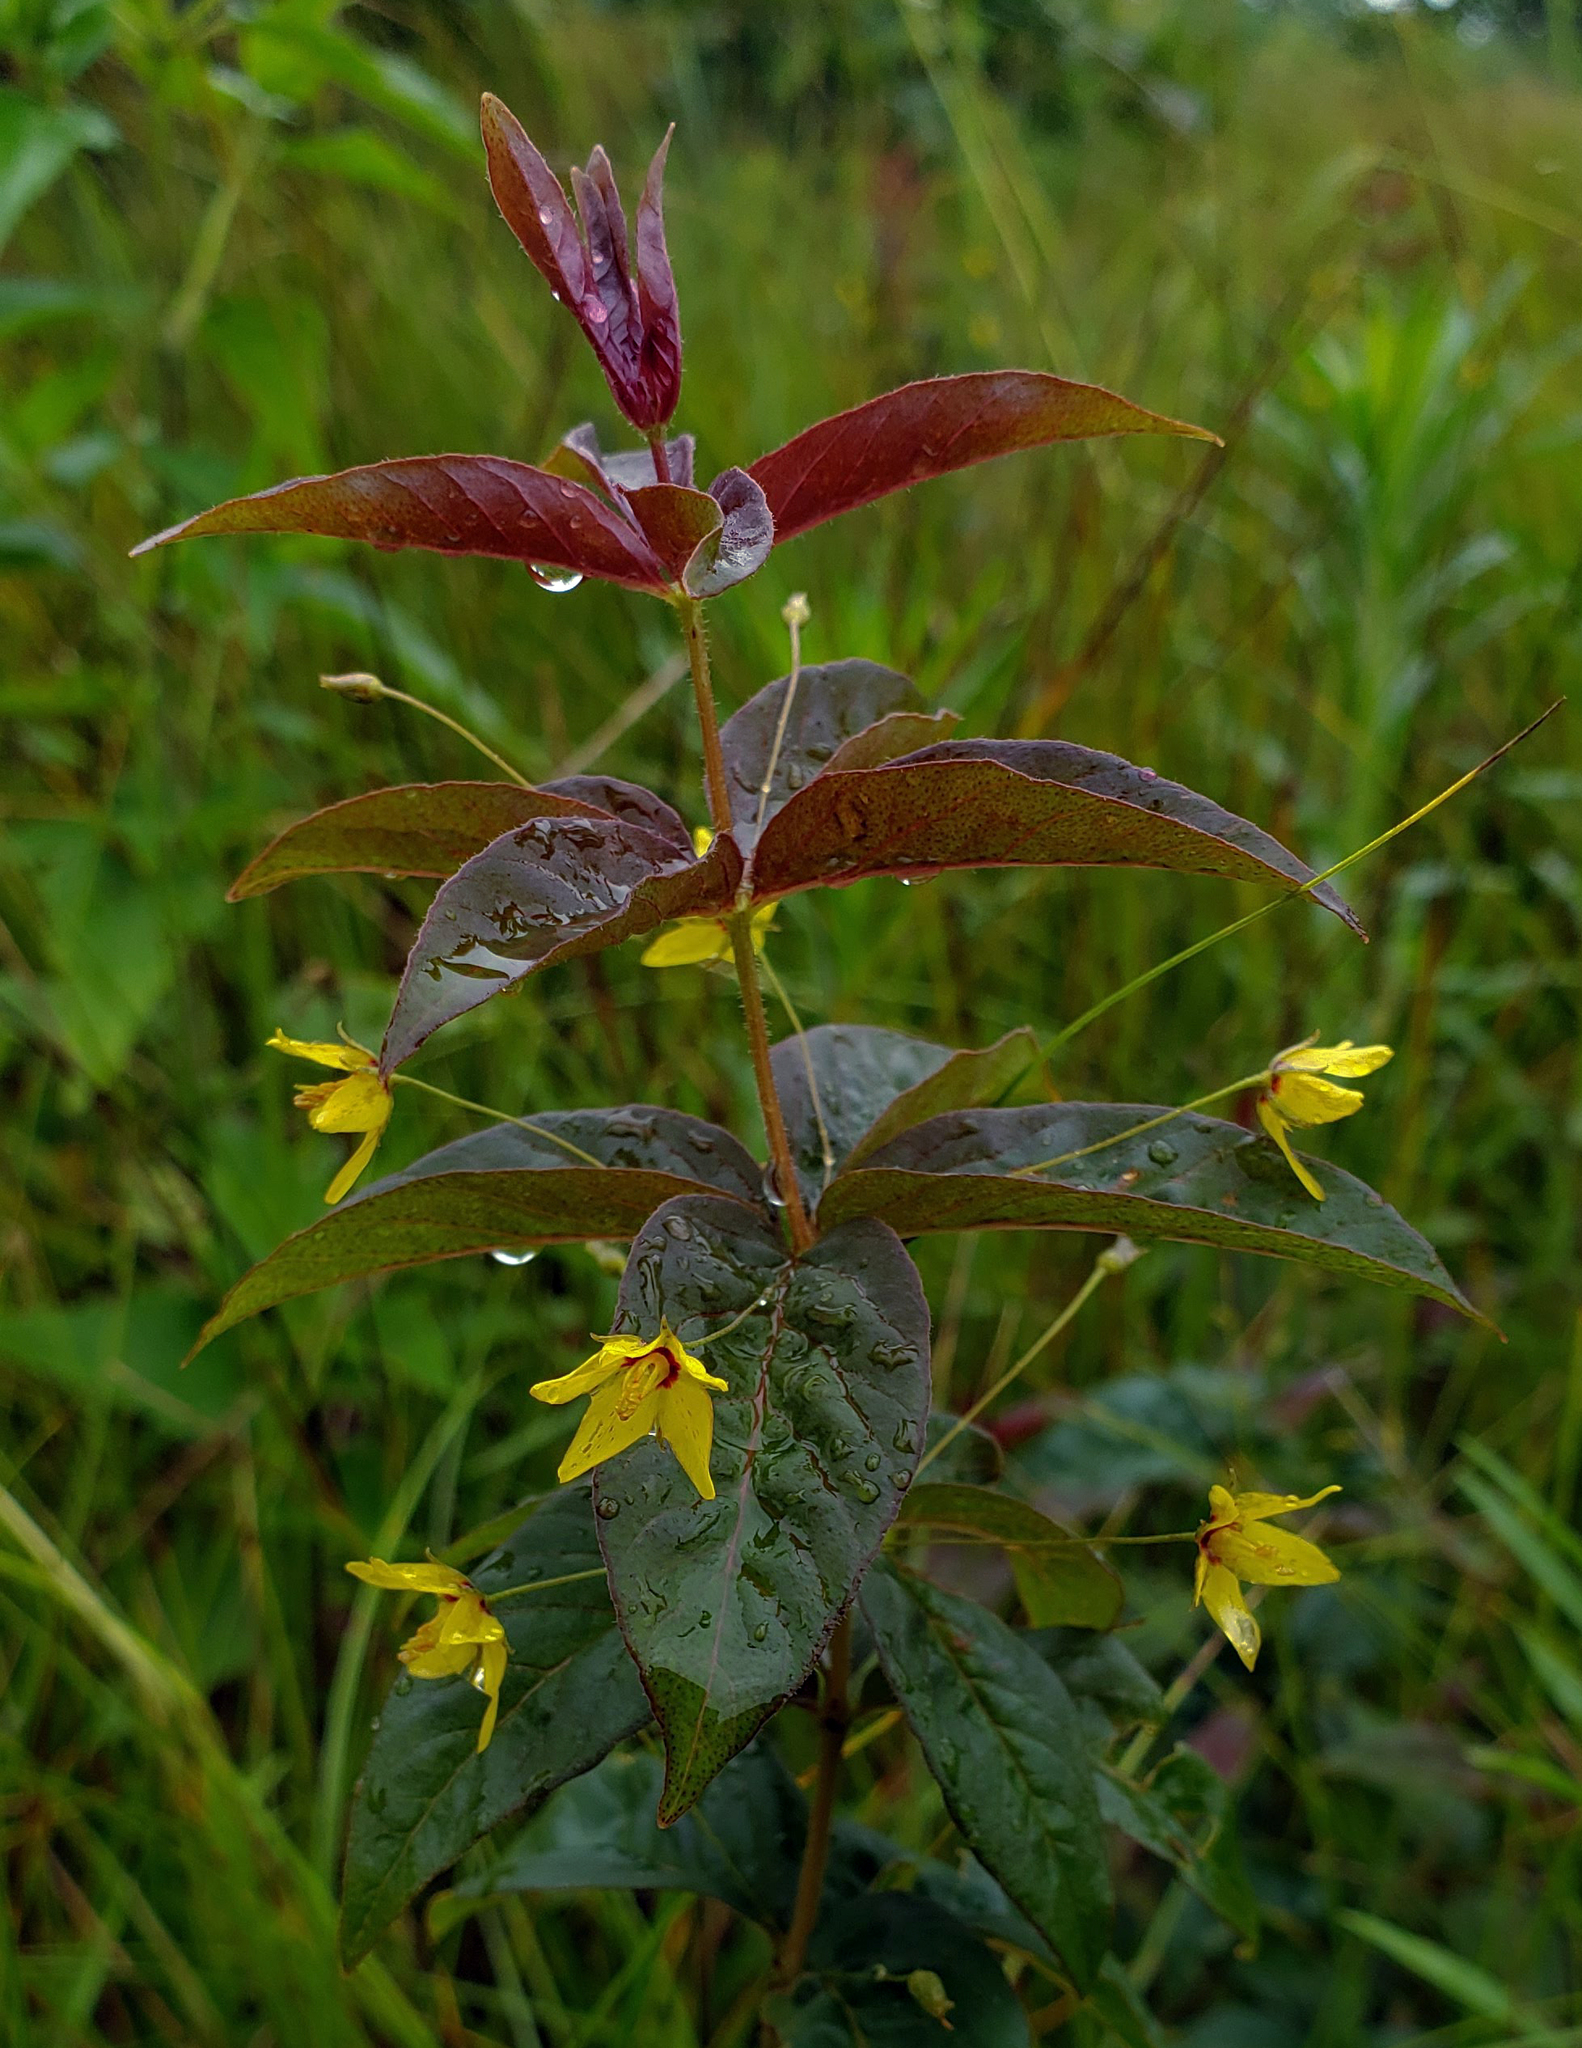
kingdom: Plantae
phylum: Tracheophyta
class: Magnoliopsida
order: Ericales
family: Primulaceae
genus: Lysimachia
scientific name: Lysimachia quadrifolia
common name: Whorled loosestrife
